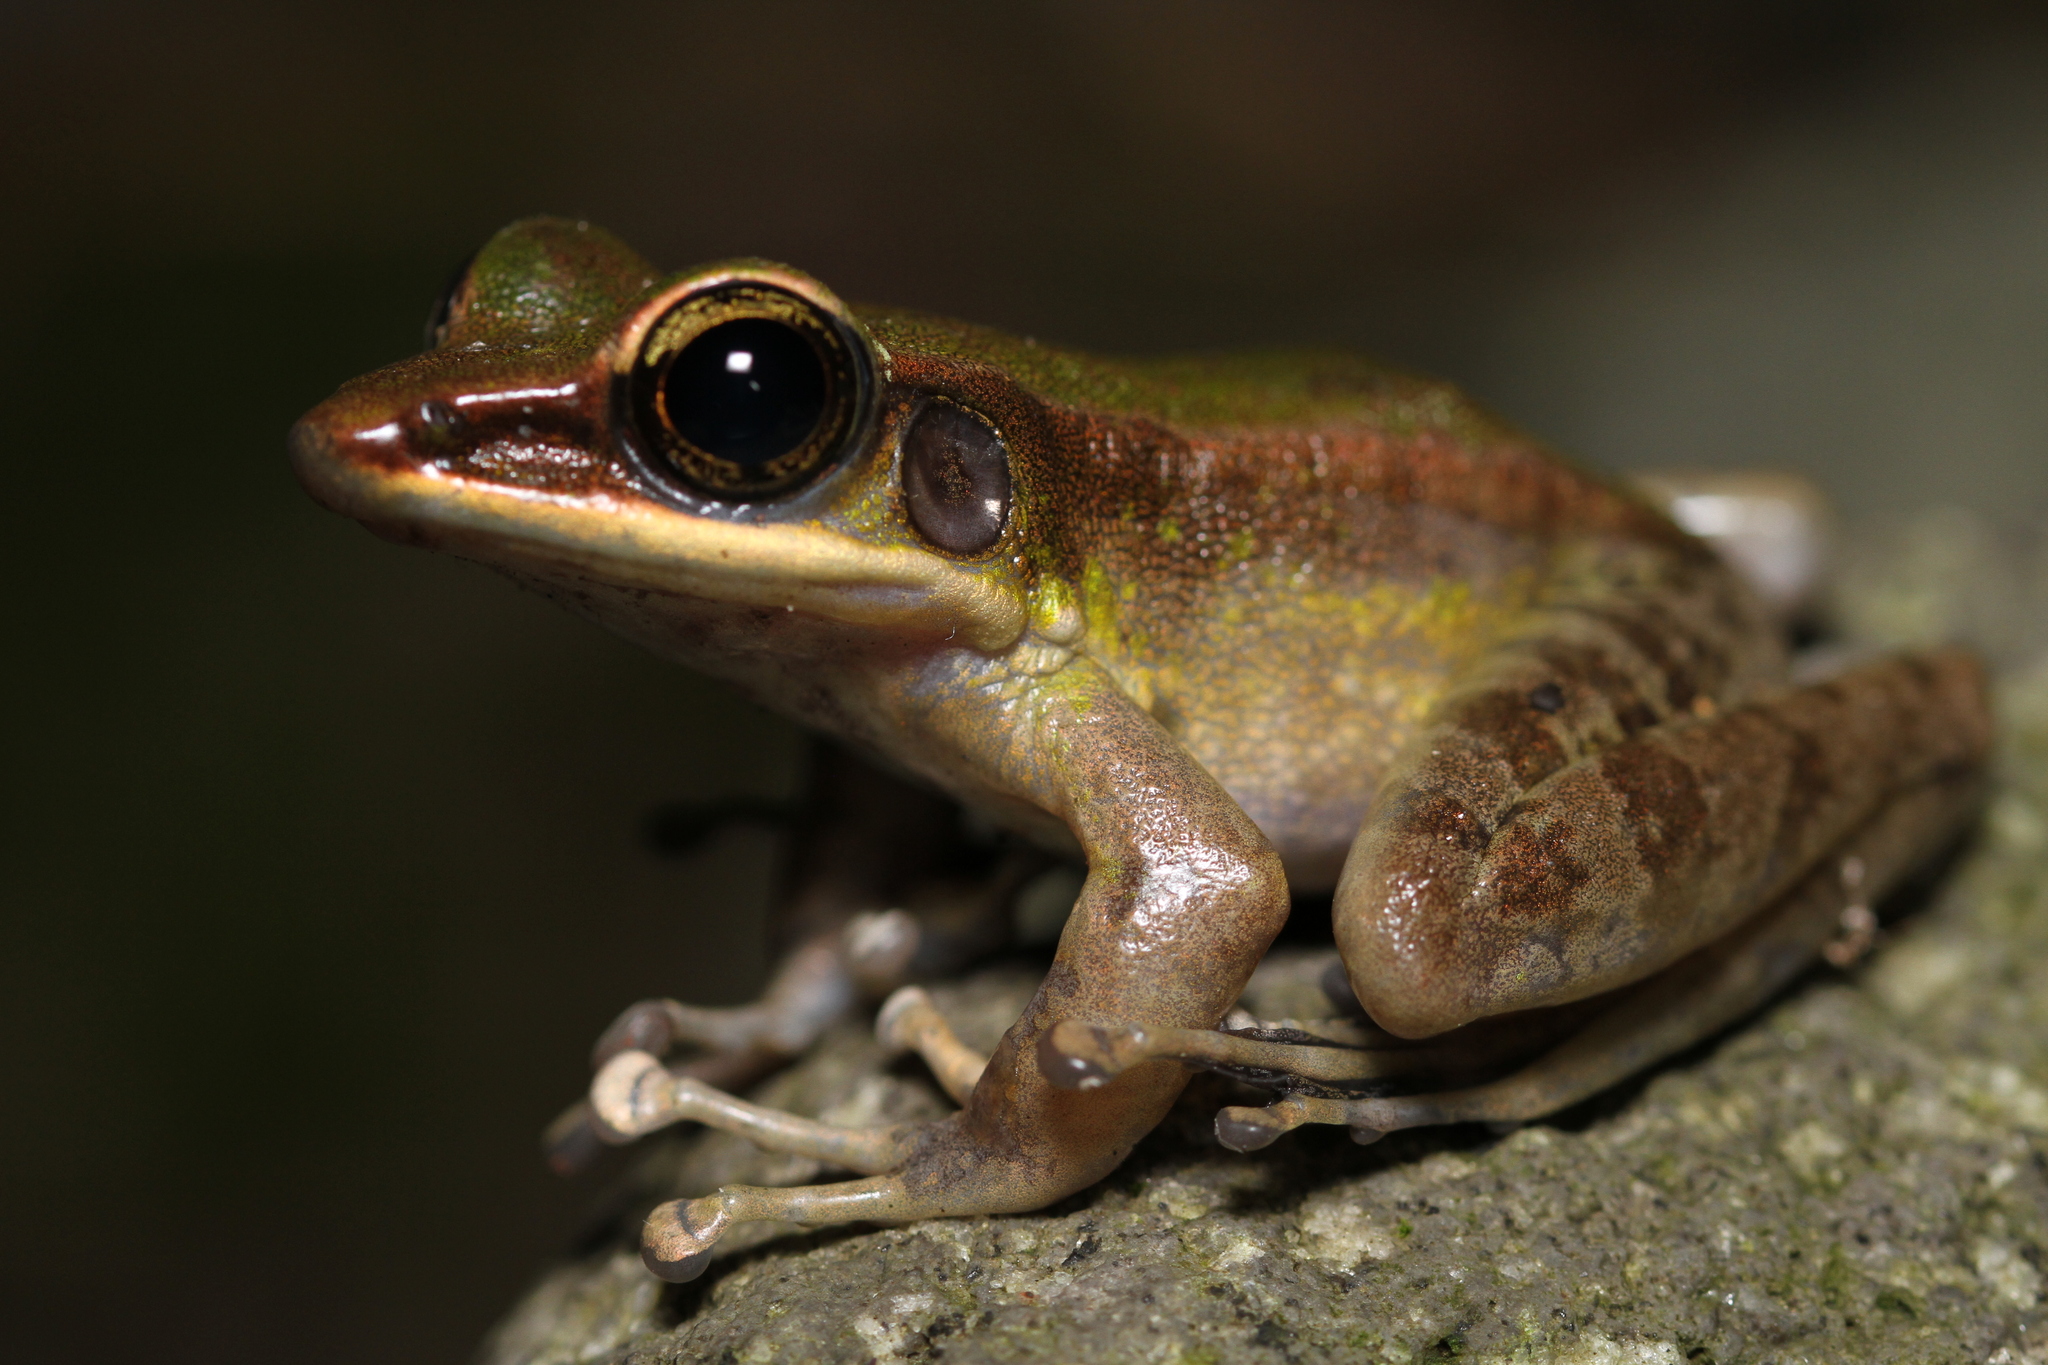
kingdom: Animalia
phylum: Chordata
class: Amphibia
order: Anura
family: Ranidae
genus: Odorrana
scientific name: Odorrana hosii
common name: Green tree frog
